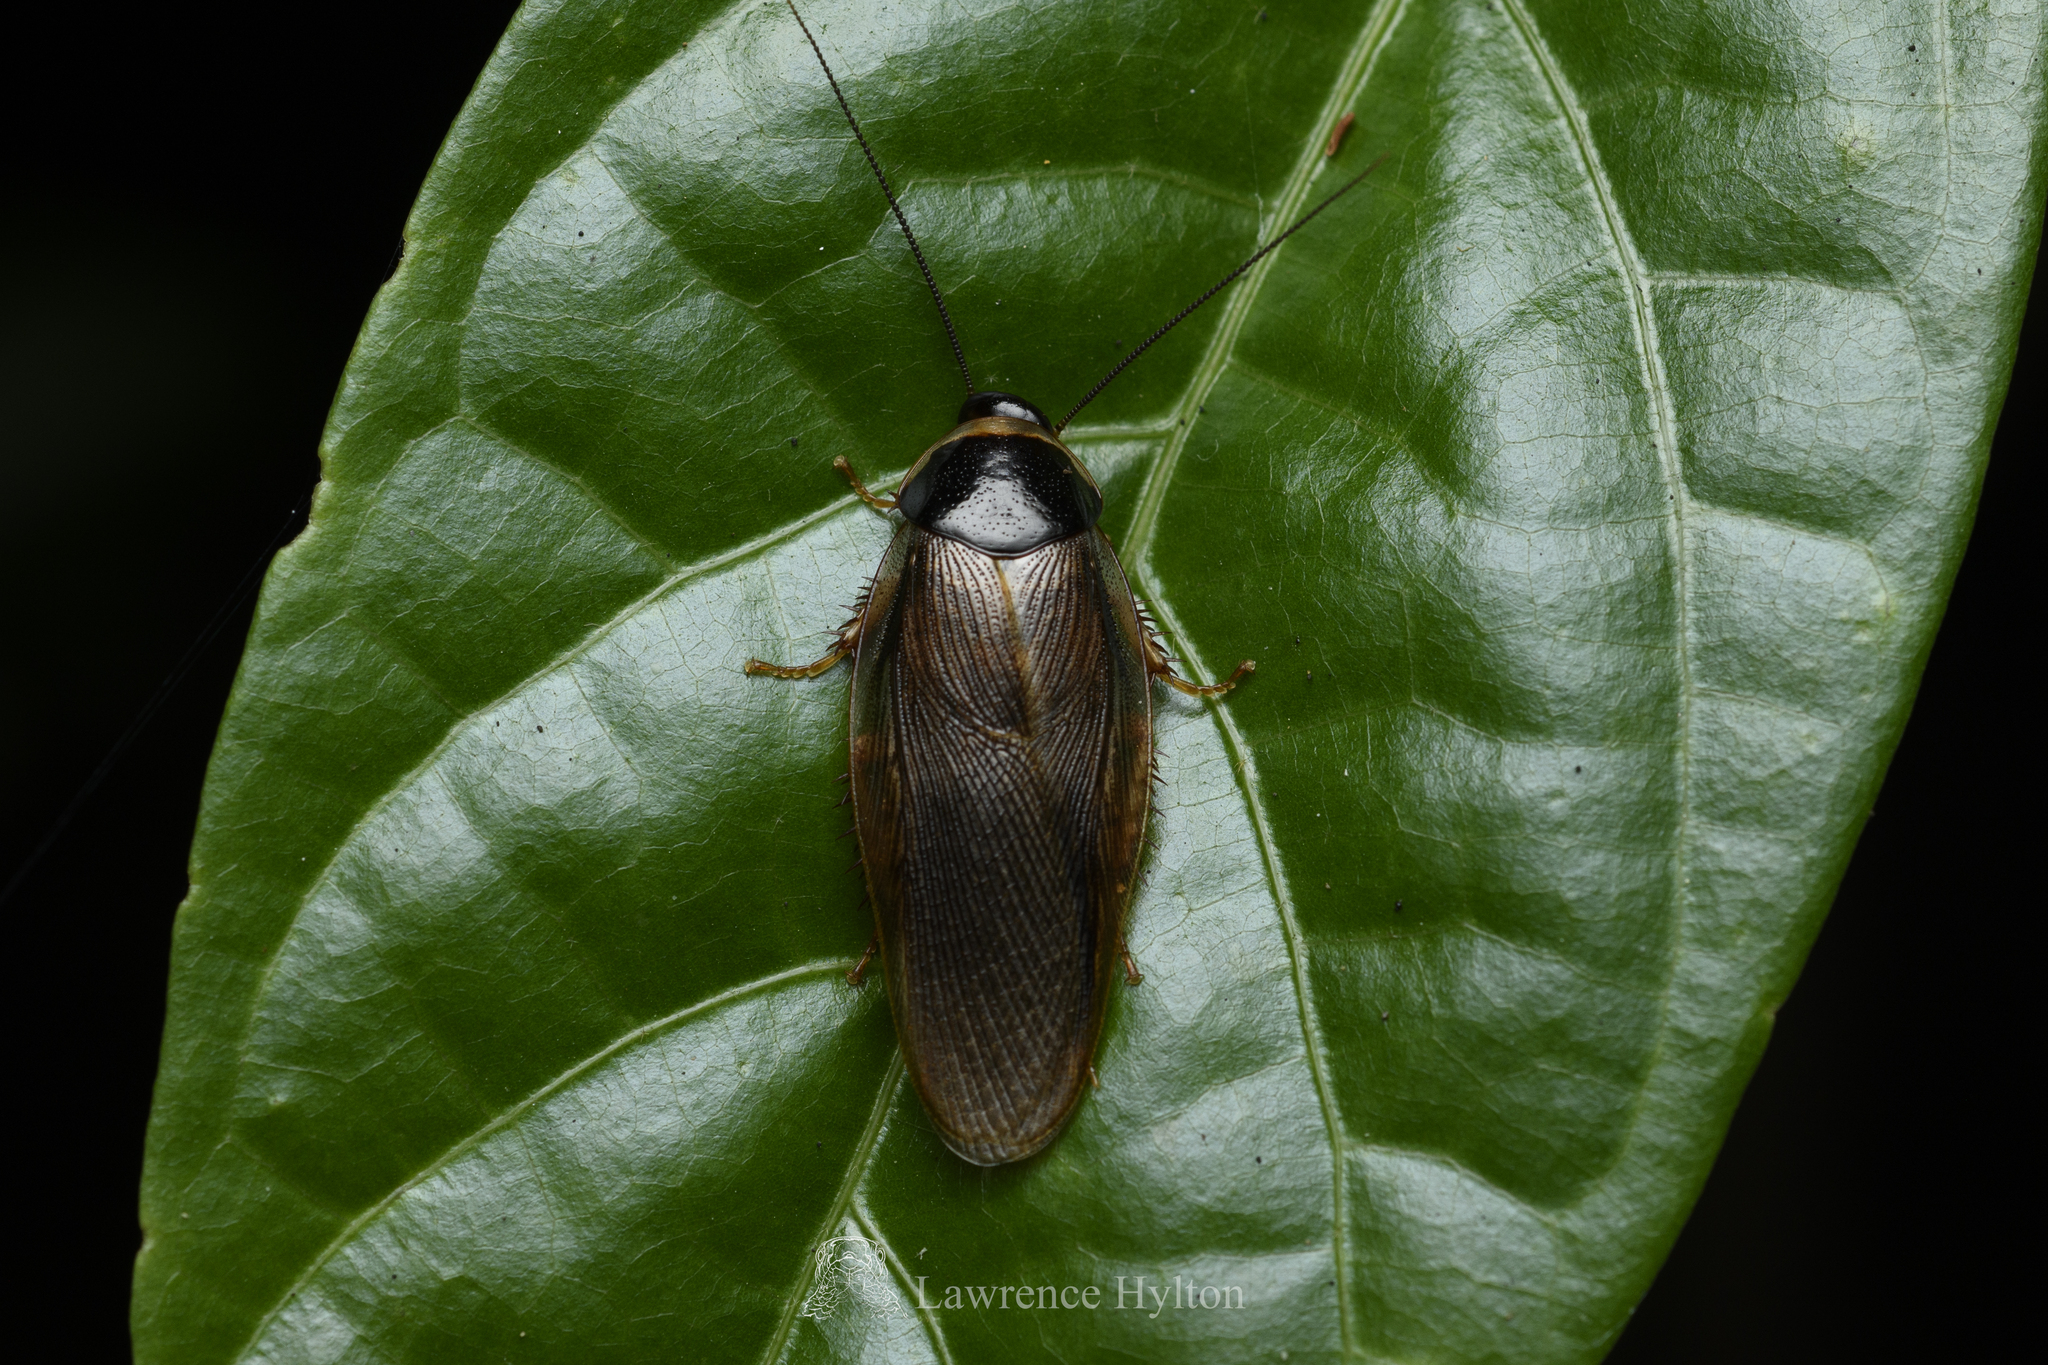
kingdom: Animalia
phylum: Arthropoda
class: Insecta
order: Blattodea
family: Blaberidae
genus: Pycnoscelus
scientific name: Pycnoscelus indicus
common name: Burrowing cockroach
